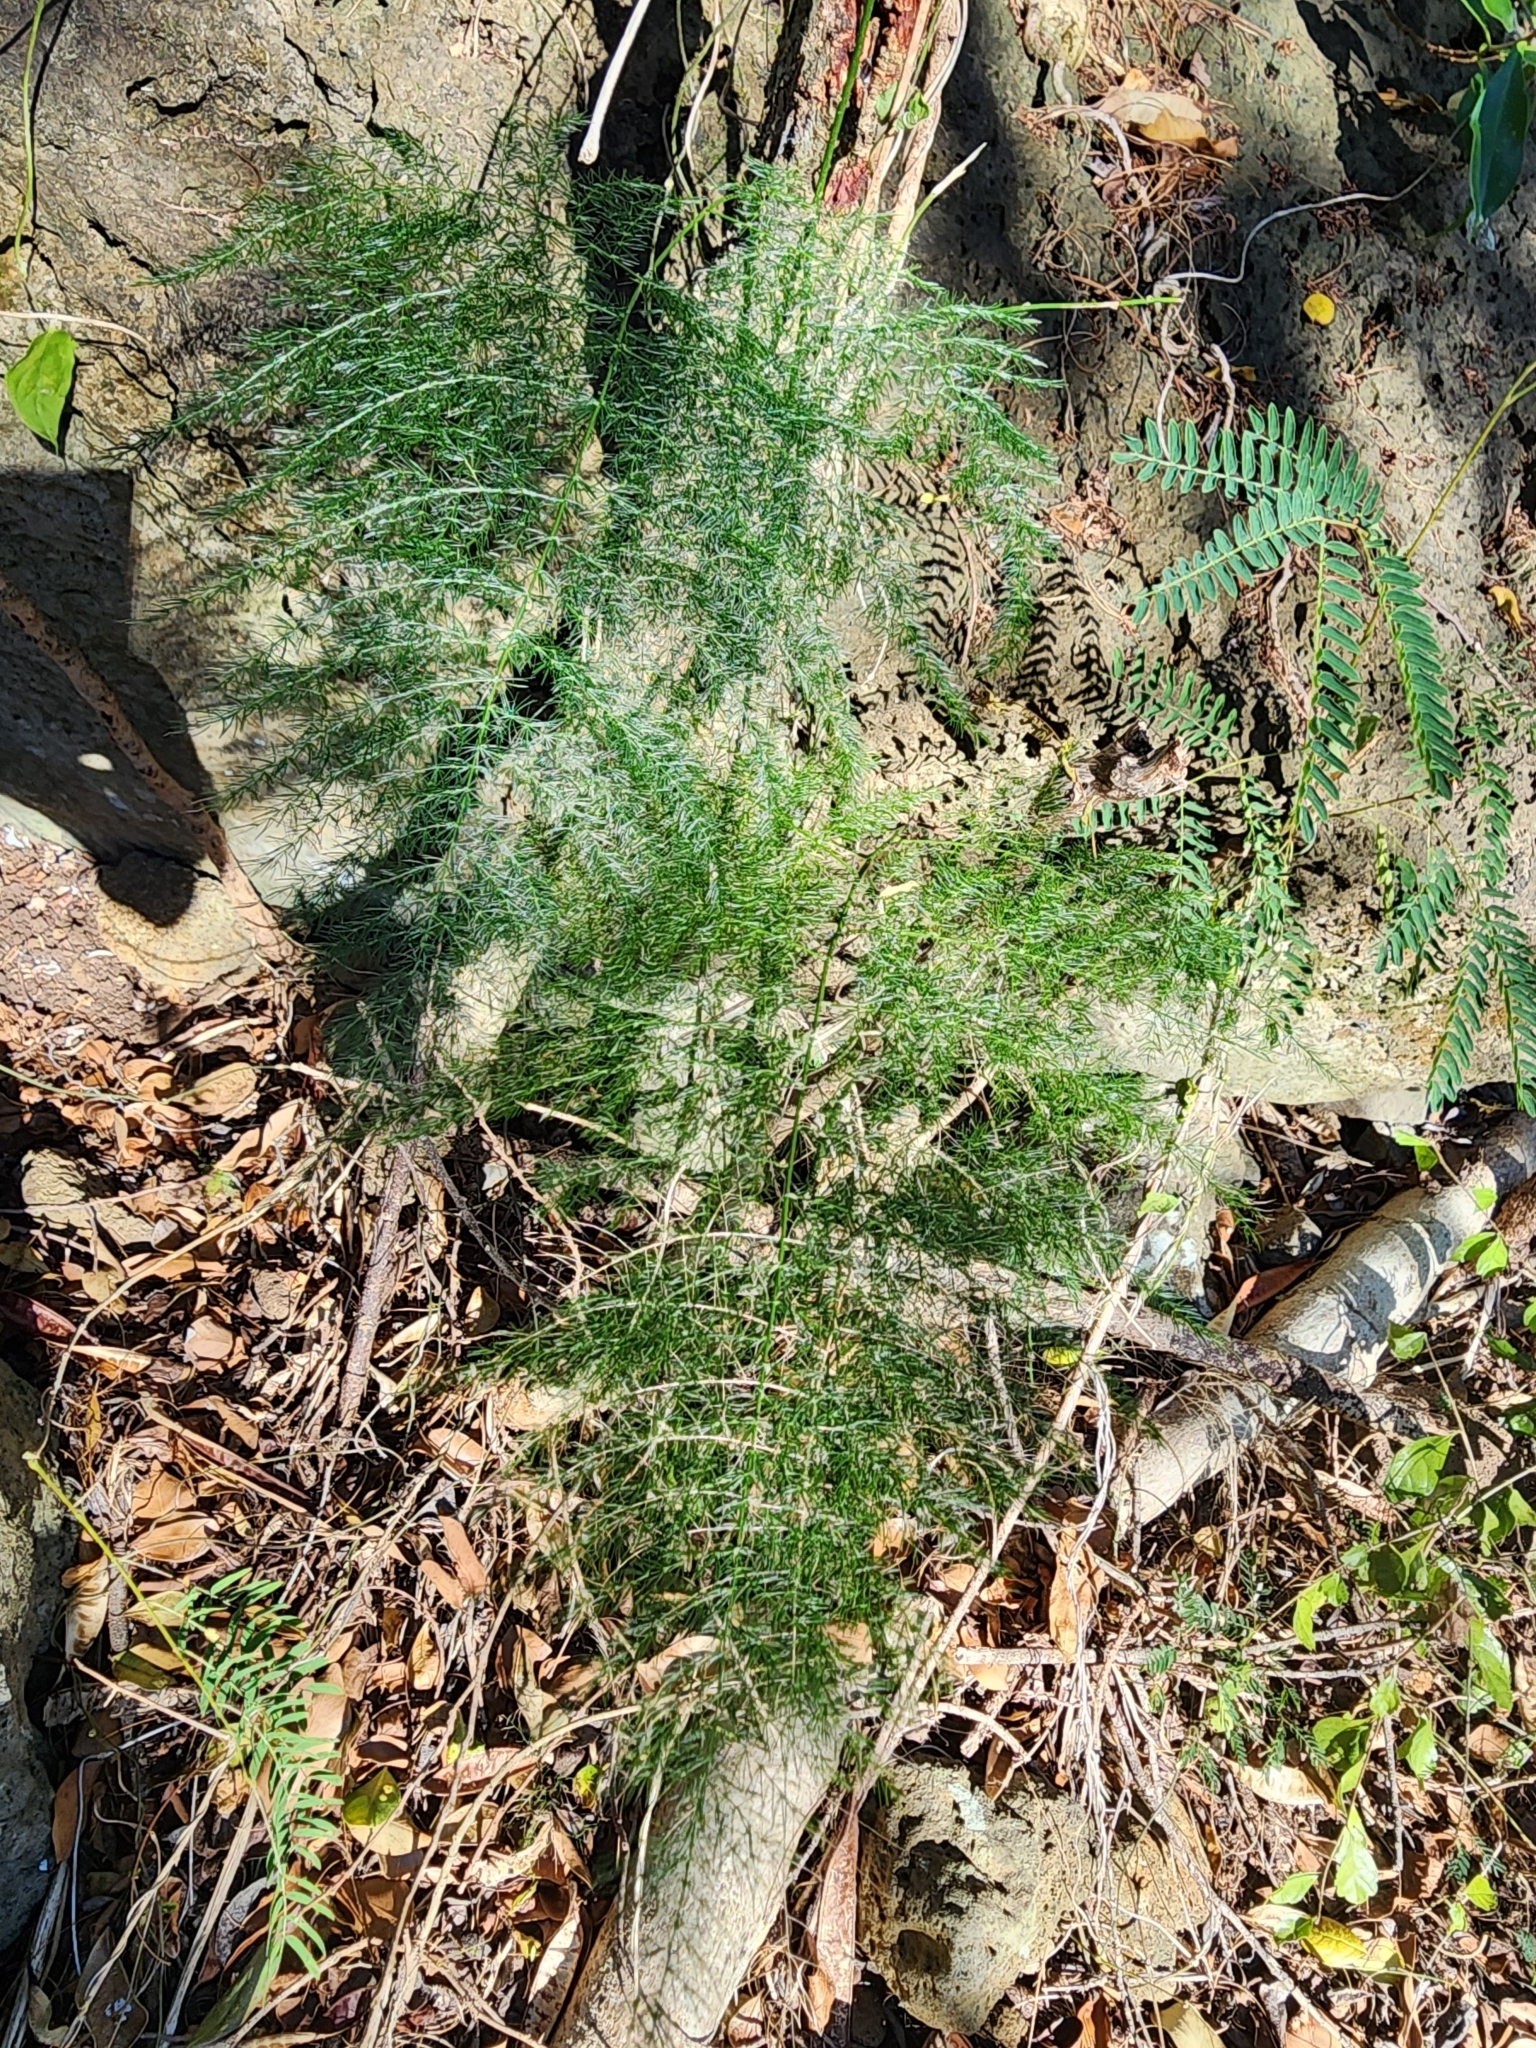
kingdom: Plantae
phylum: Tracheophyta
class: Liliopsida
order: Asparagales
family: Asparagaceae
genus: Asparagus
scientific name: Asparagus setaceus
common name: Common asparagus fern
